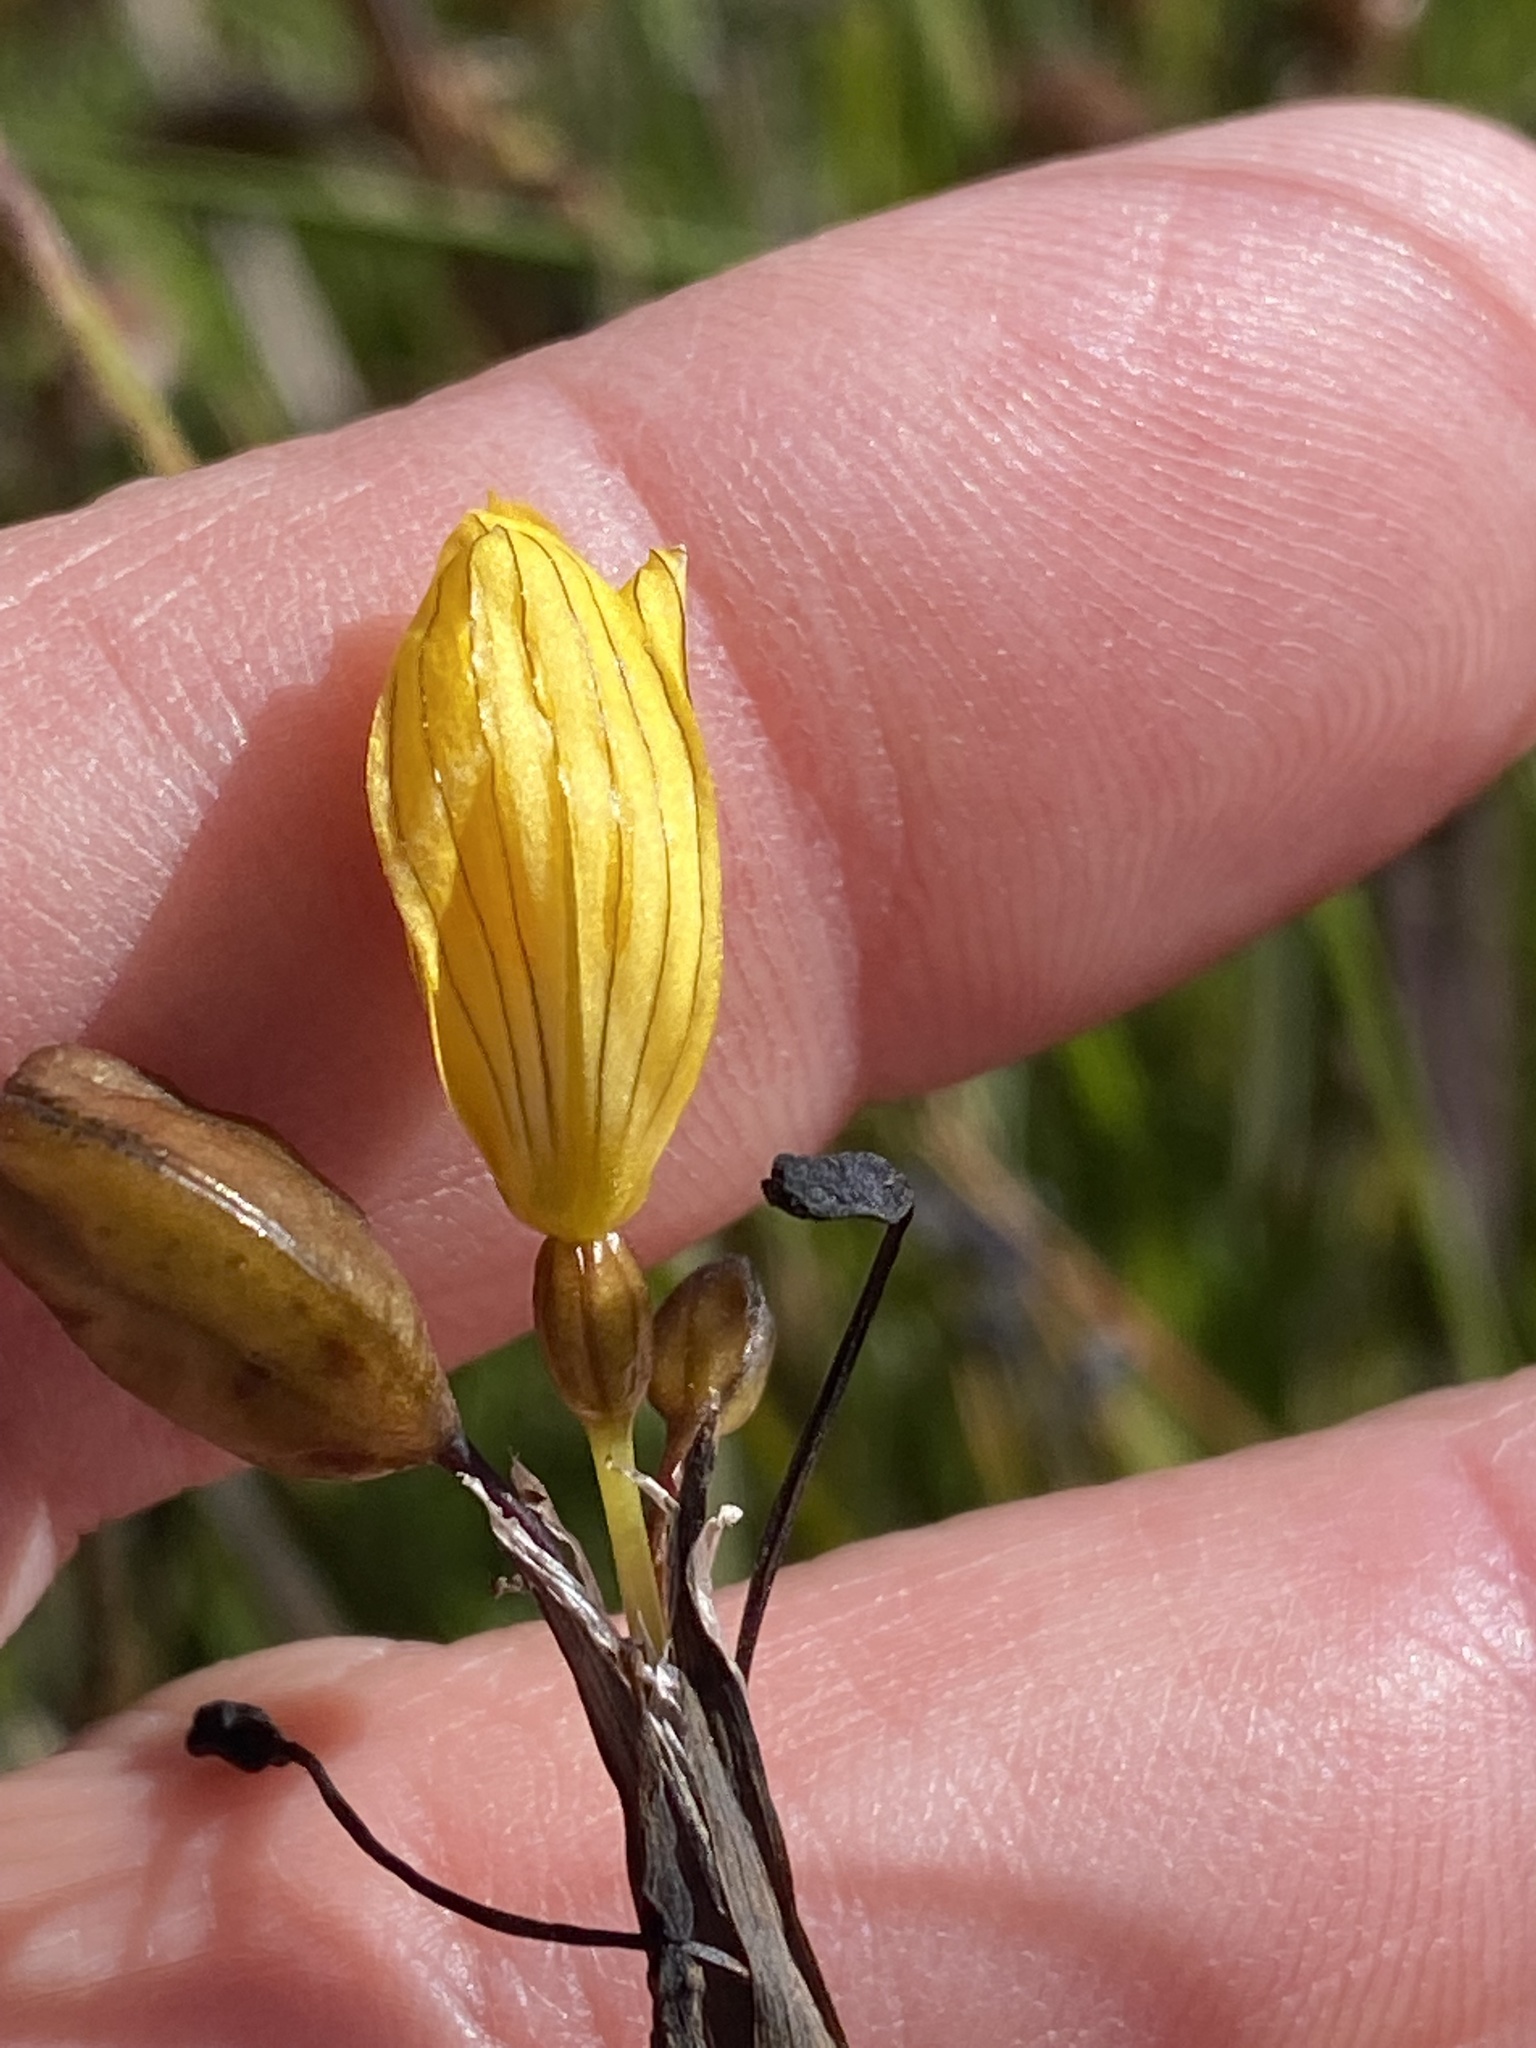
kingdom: Plantae
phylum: Tracheophyta
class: Liliopsida
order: Asparagales
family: Iridaceae
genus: Sisyrinchium
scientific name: Sisyrinchium californicum
